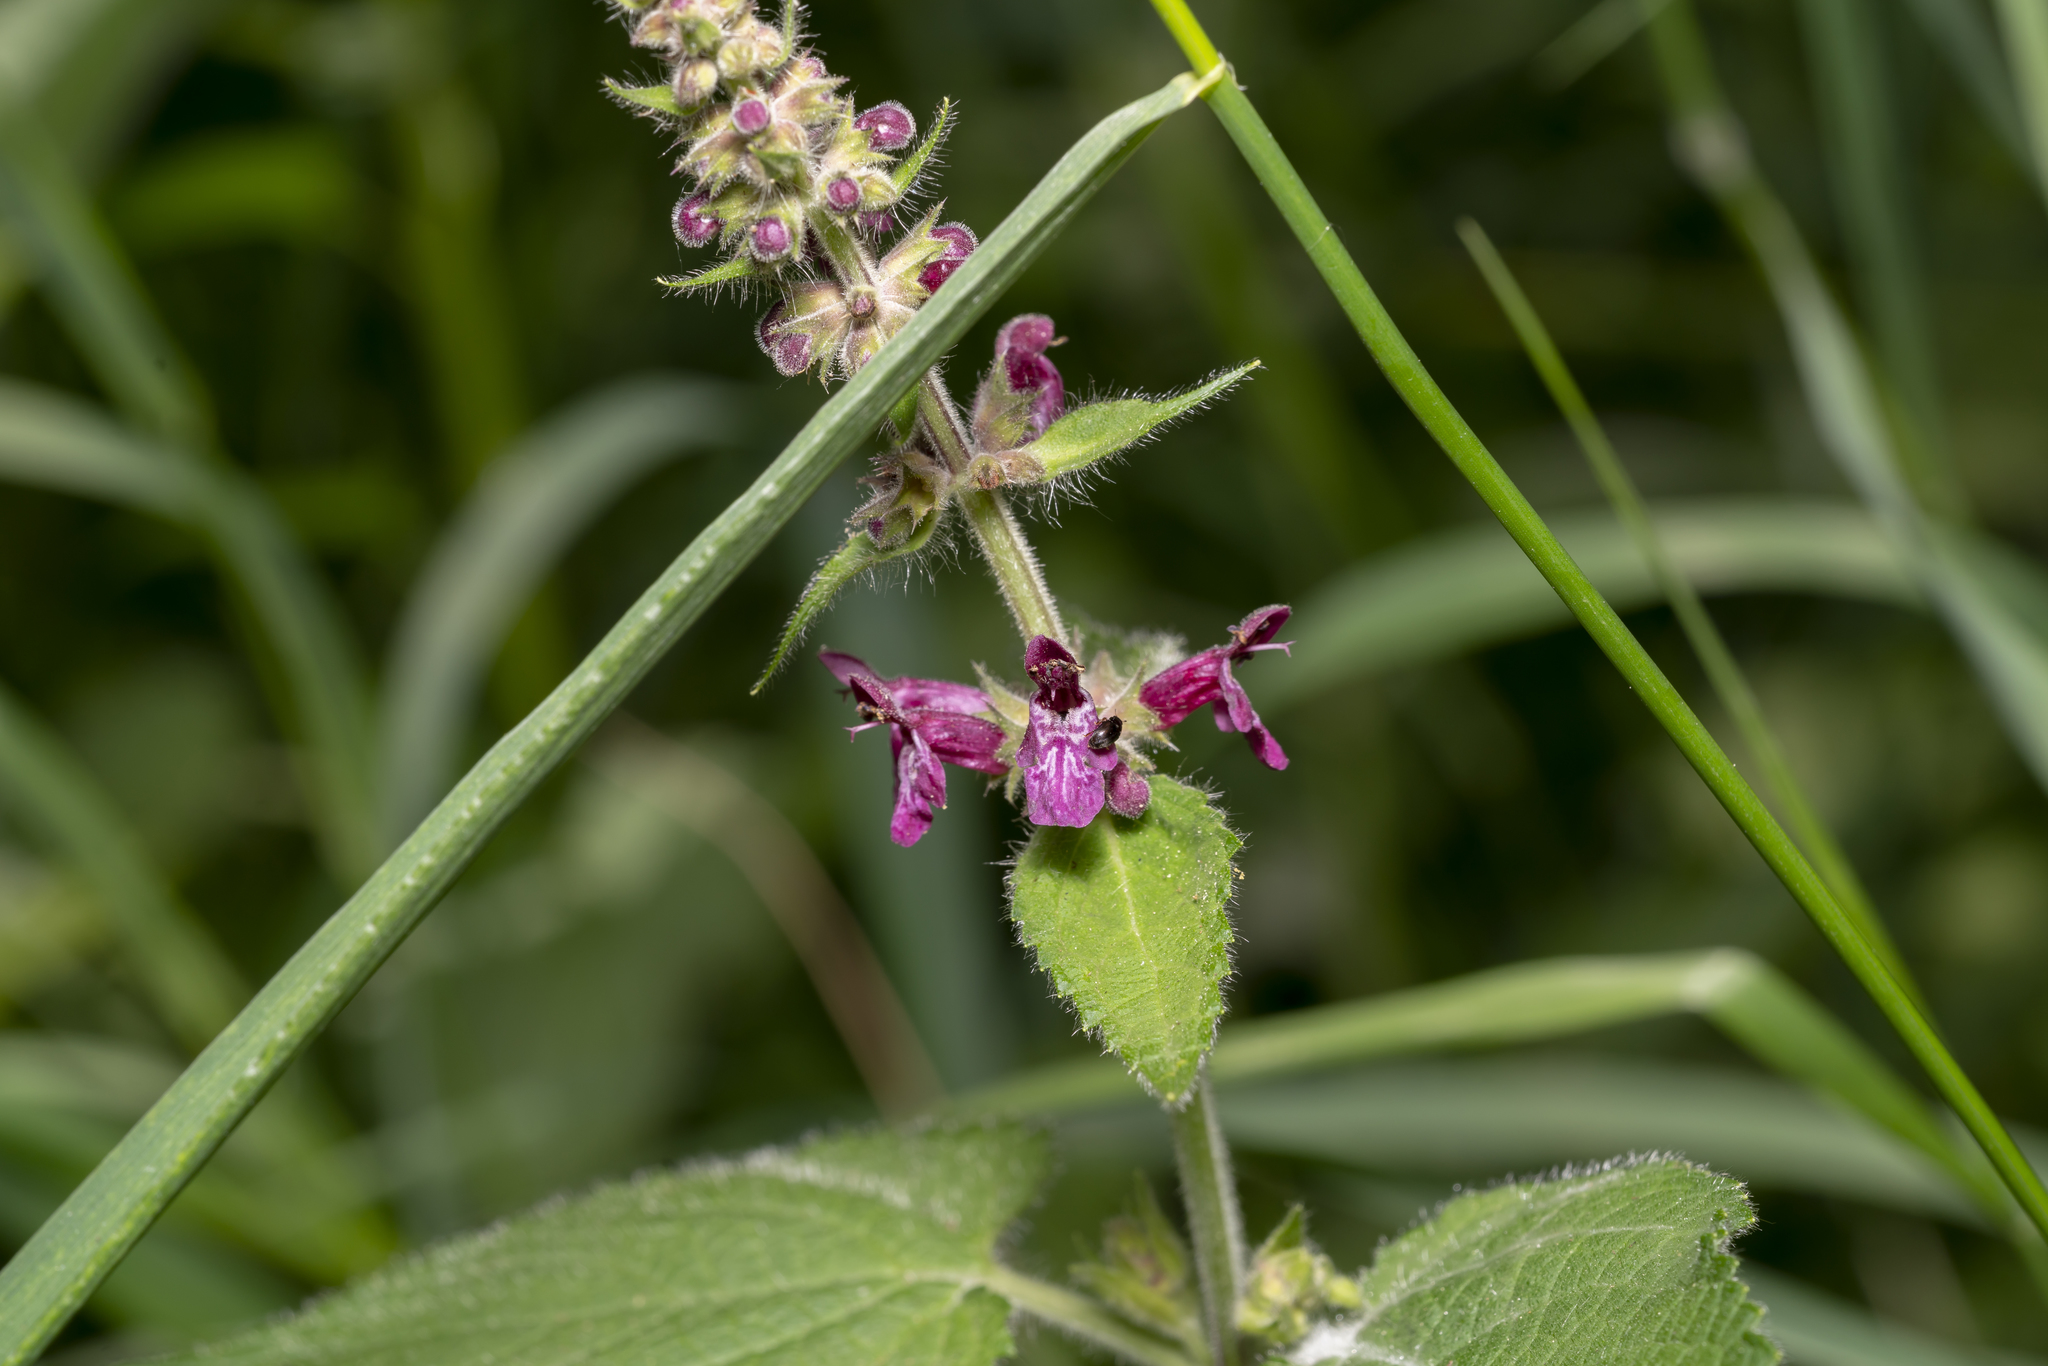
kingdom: Plantae
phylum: Tracheophyta
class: Magnoliopsida
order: Lamiales
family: Lamiaceae
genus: Stachys
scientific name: Stachys sylvatica
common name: Hedge woundwort
